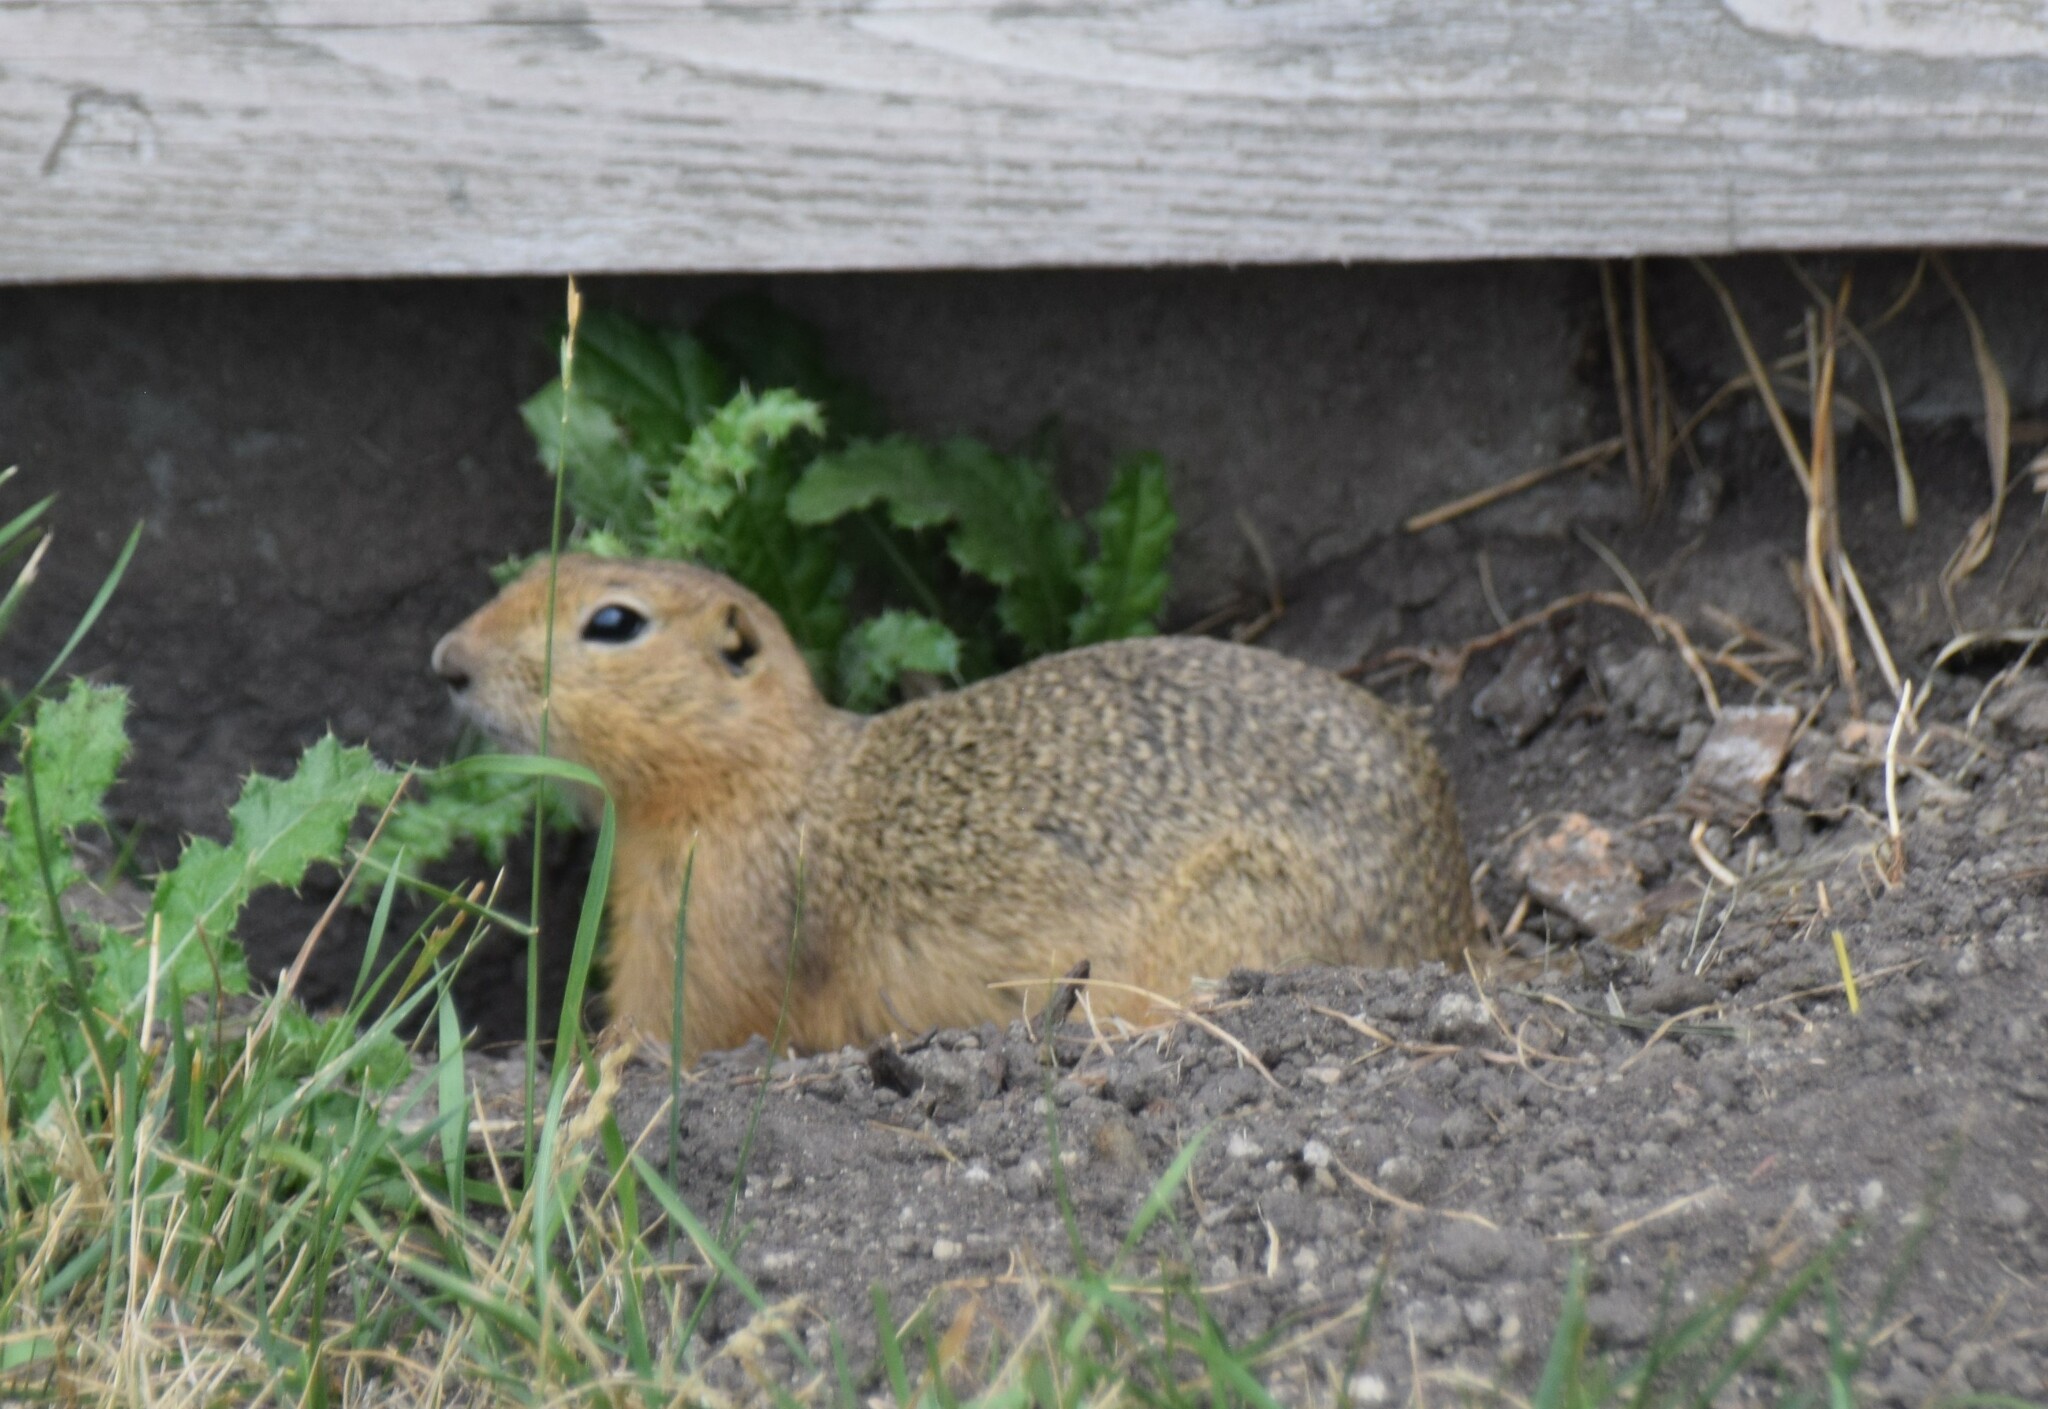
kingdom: Animalia
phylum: Chordata
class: Mammalia
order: Rodentia
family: Sciuridae
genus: Urocitellus
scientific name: Urocitellus richardsonii
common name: Richardson's ground squirrel
